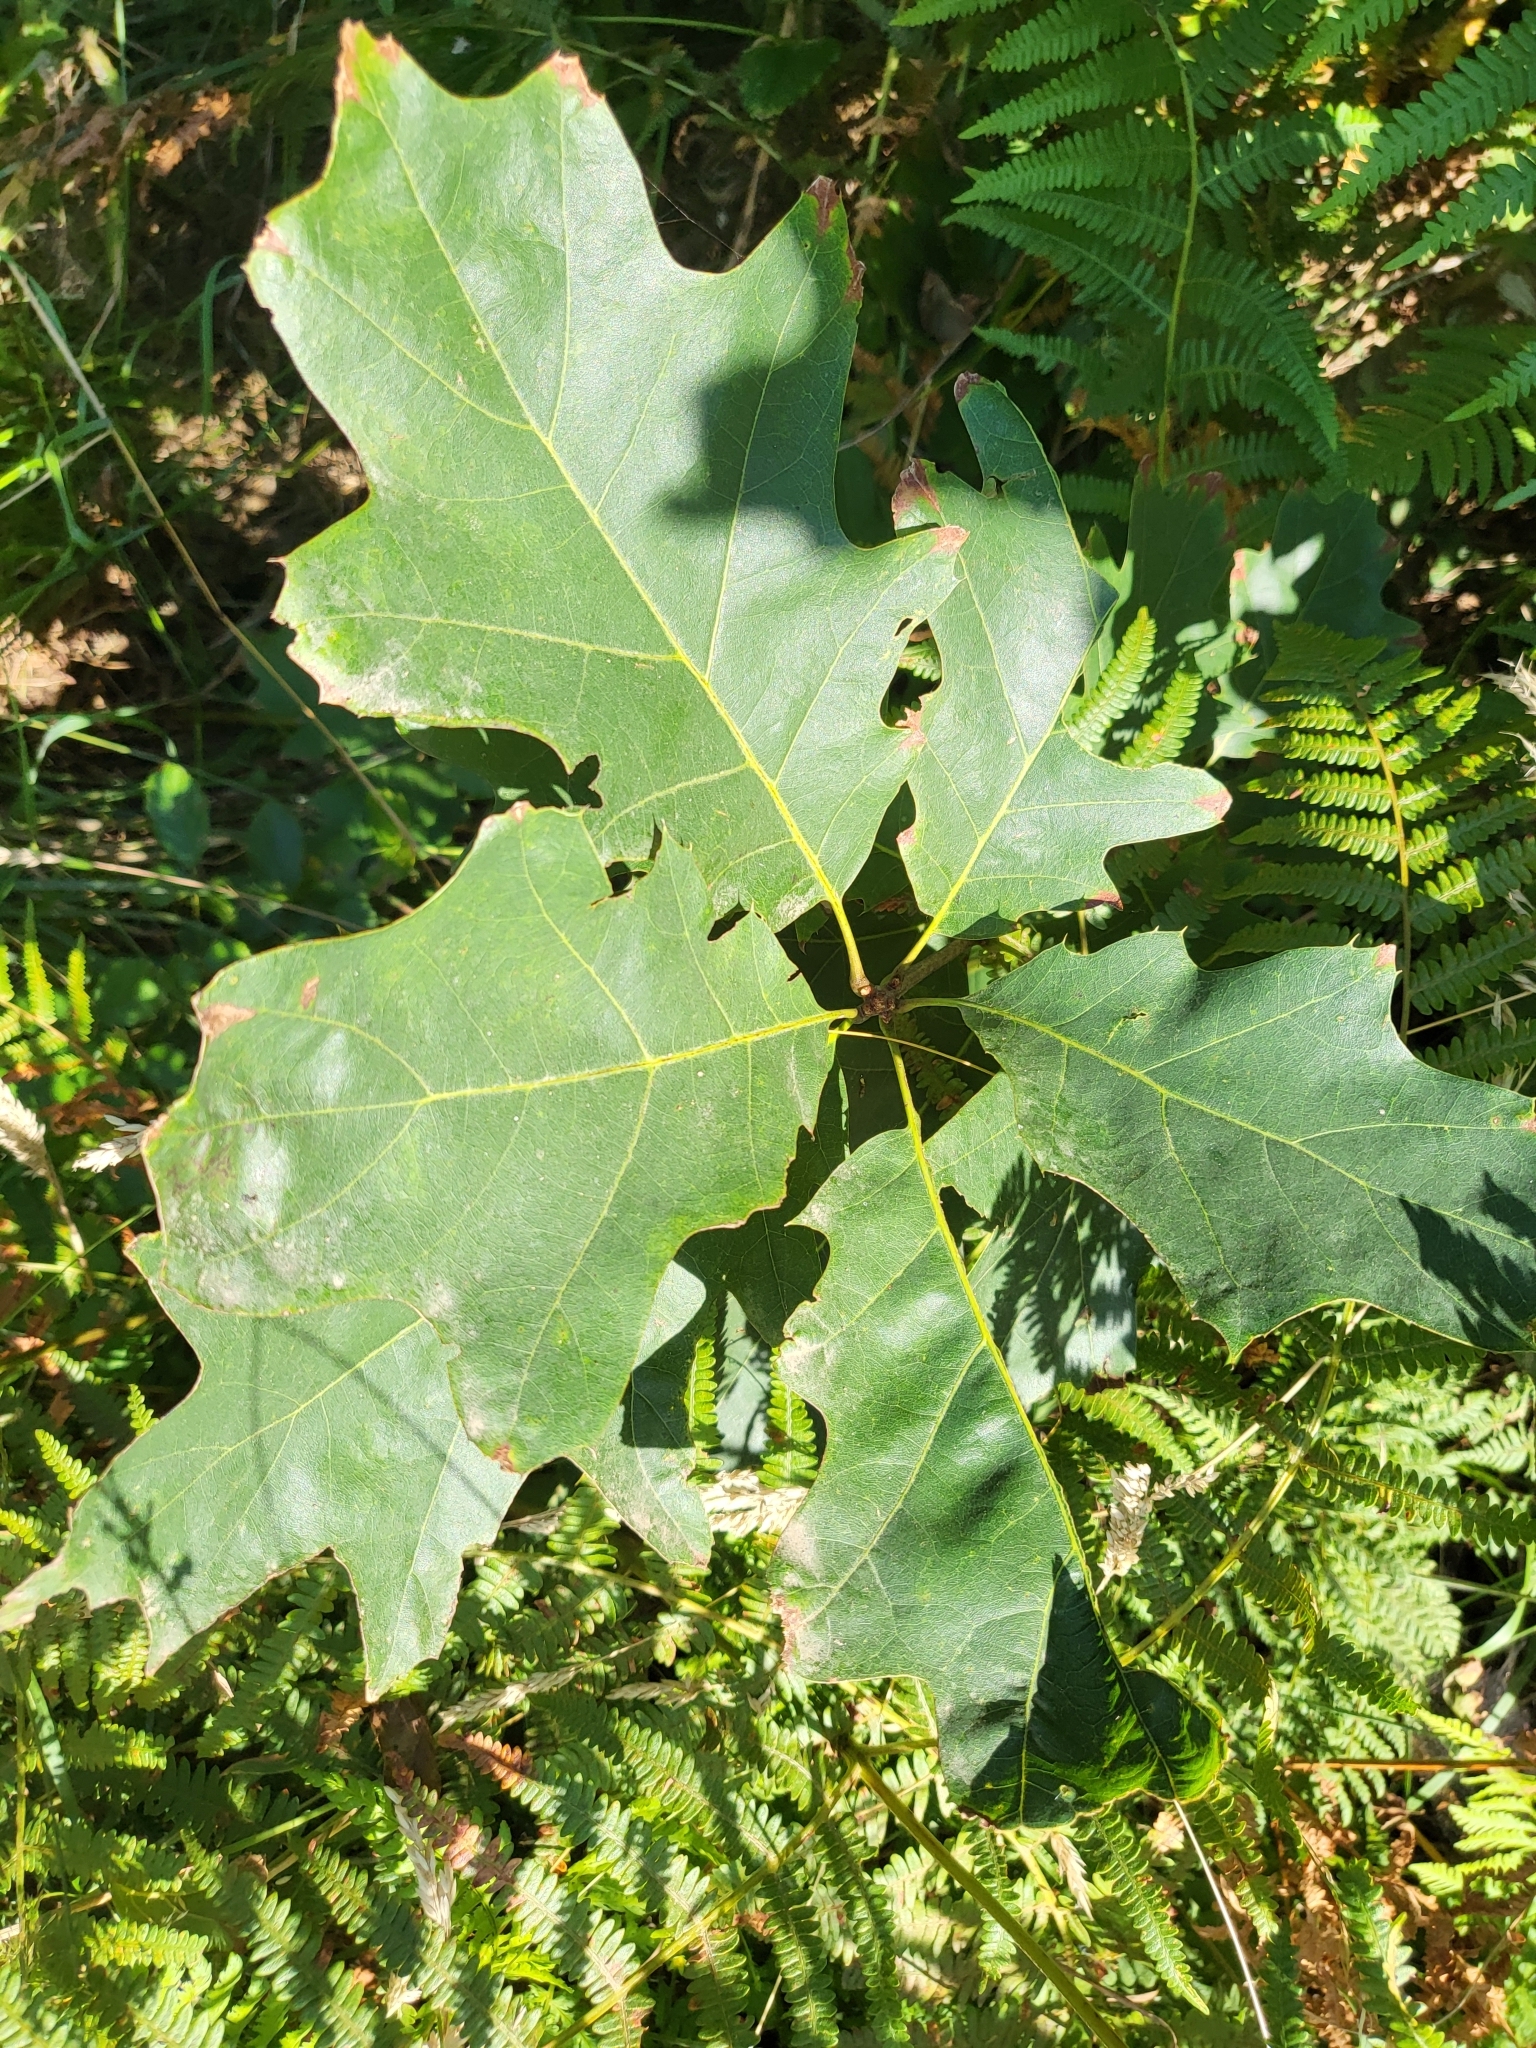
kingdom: Plantae
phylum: Tracheophyta
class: Magnoliopsida
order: Fagales
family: Fagaceae
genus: Quercus
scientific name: Quercus rubra
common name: Red oak
